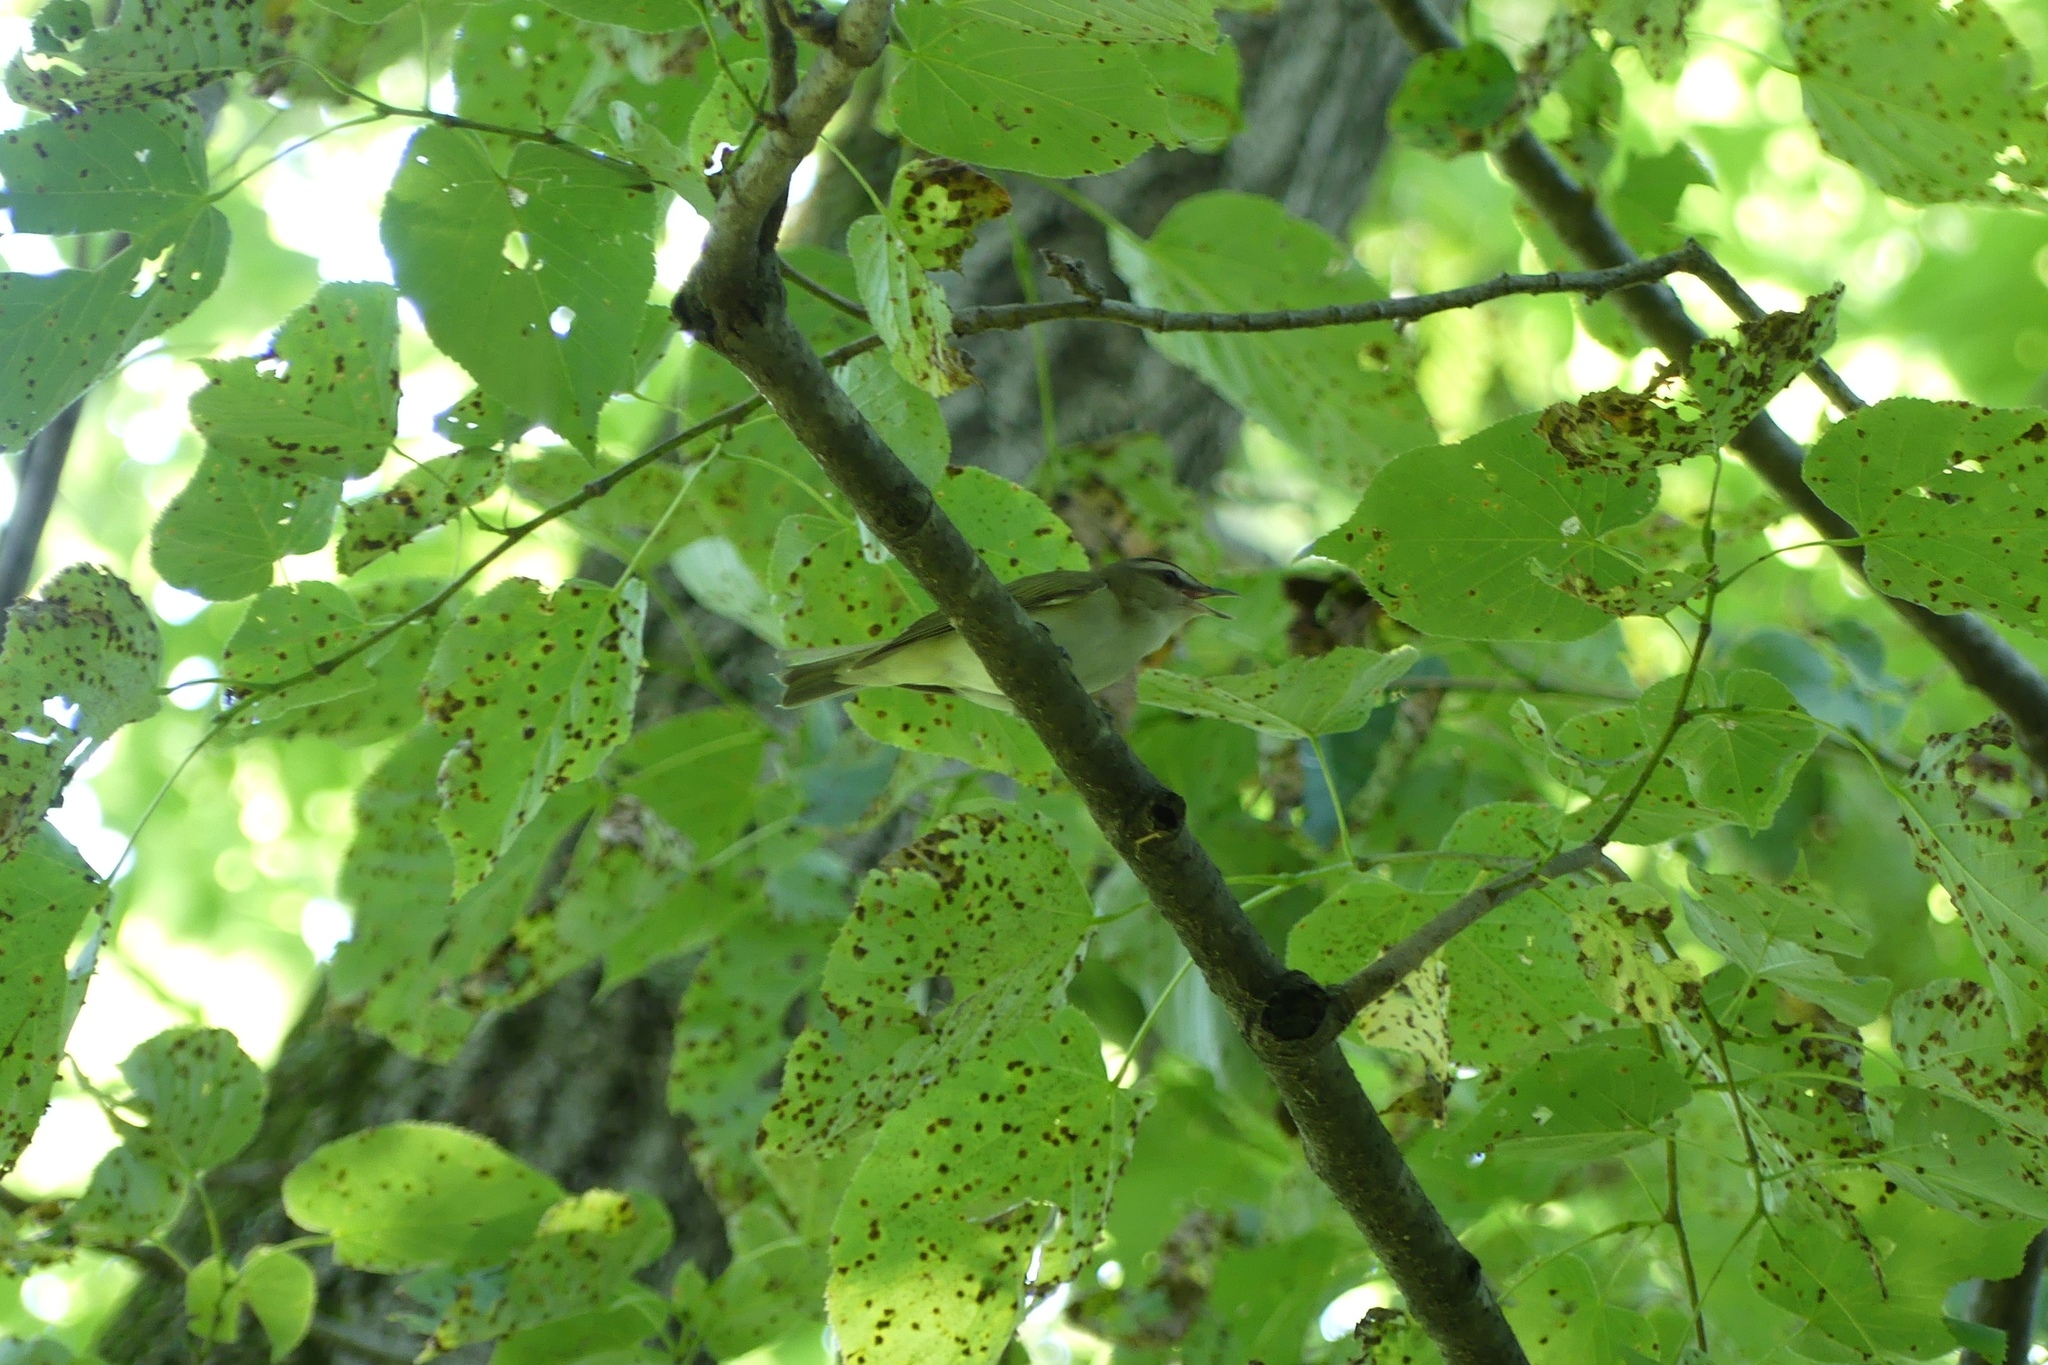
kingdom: Animalia
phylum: Chordata
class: Aves
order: Passeriformes
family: Vireonidae
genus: Vireo
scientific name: Vireo olivaceus
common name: Red-eyed vireo
